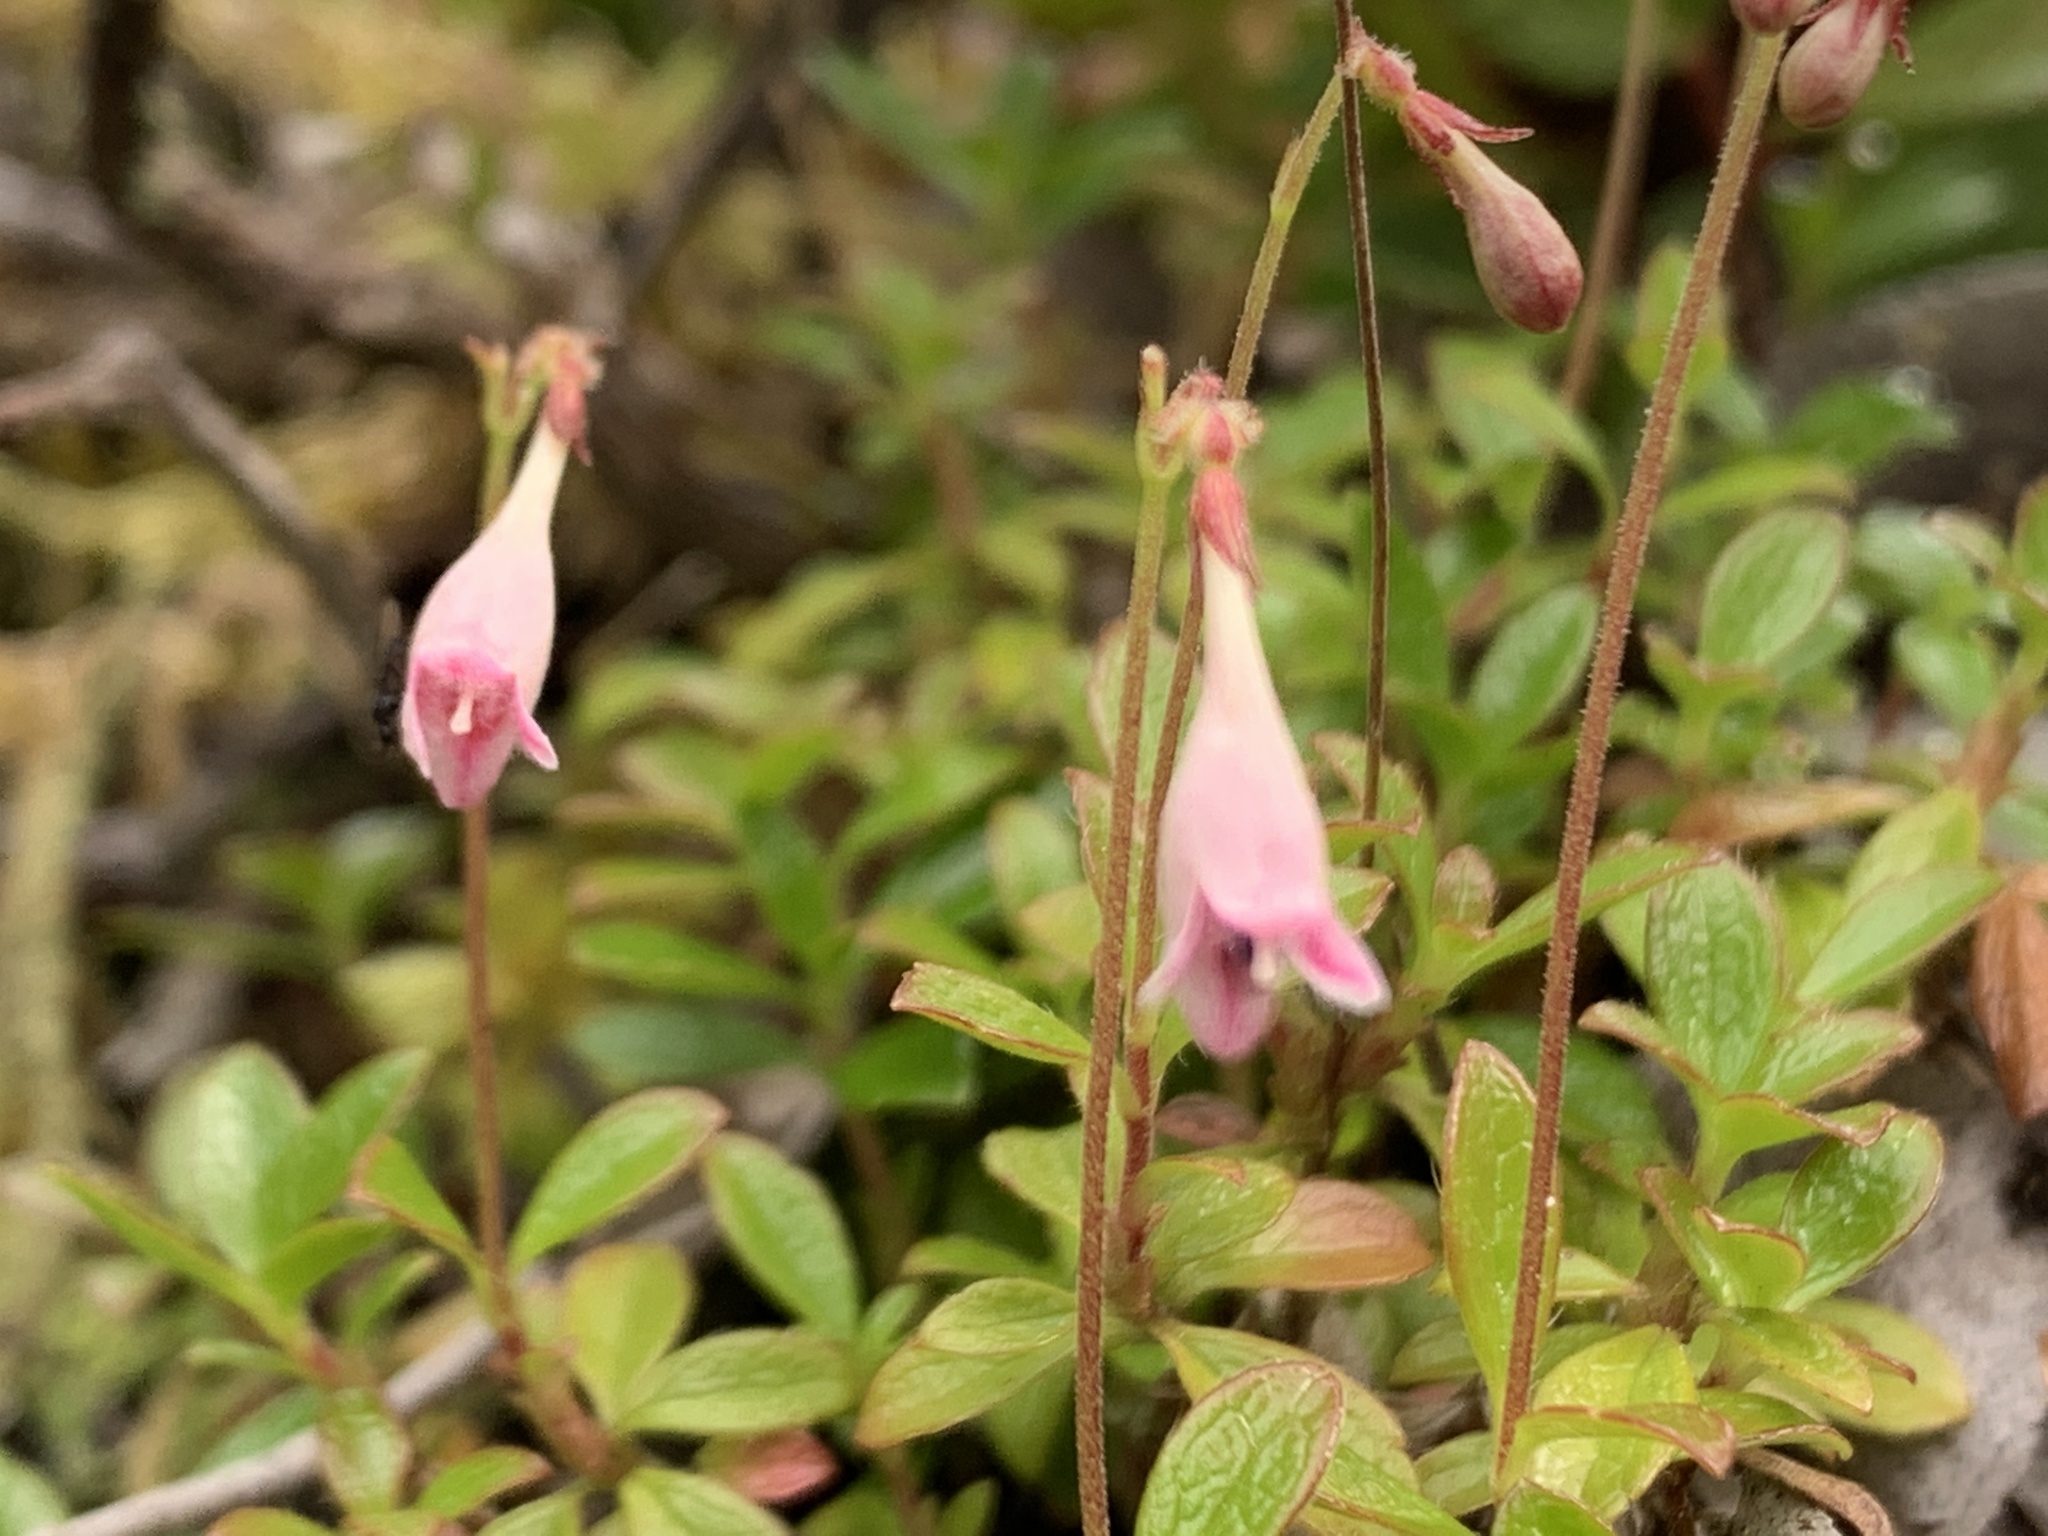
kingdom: Plantae
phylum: Tracheophyta
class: Magnoliopsida
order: Dipsacales
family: Caprifoliaceae
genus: Linnaea
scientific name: Linnaea borealis
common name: Twinflower
